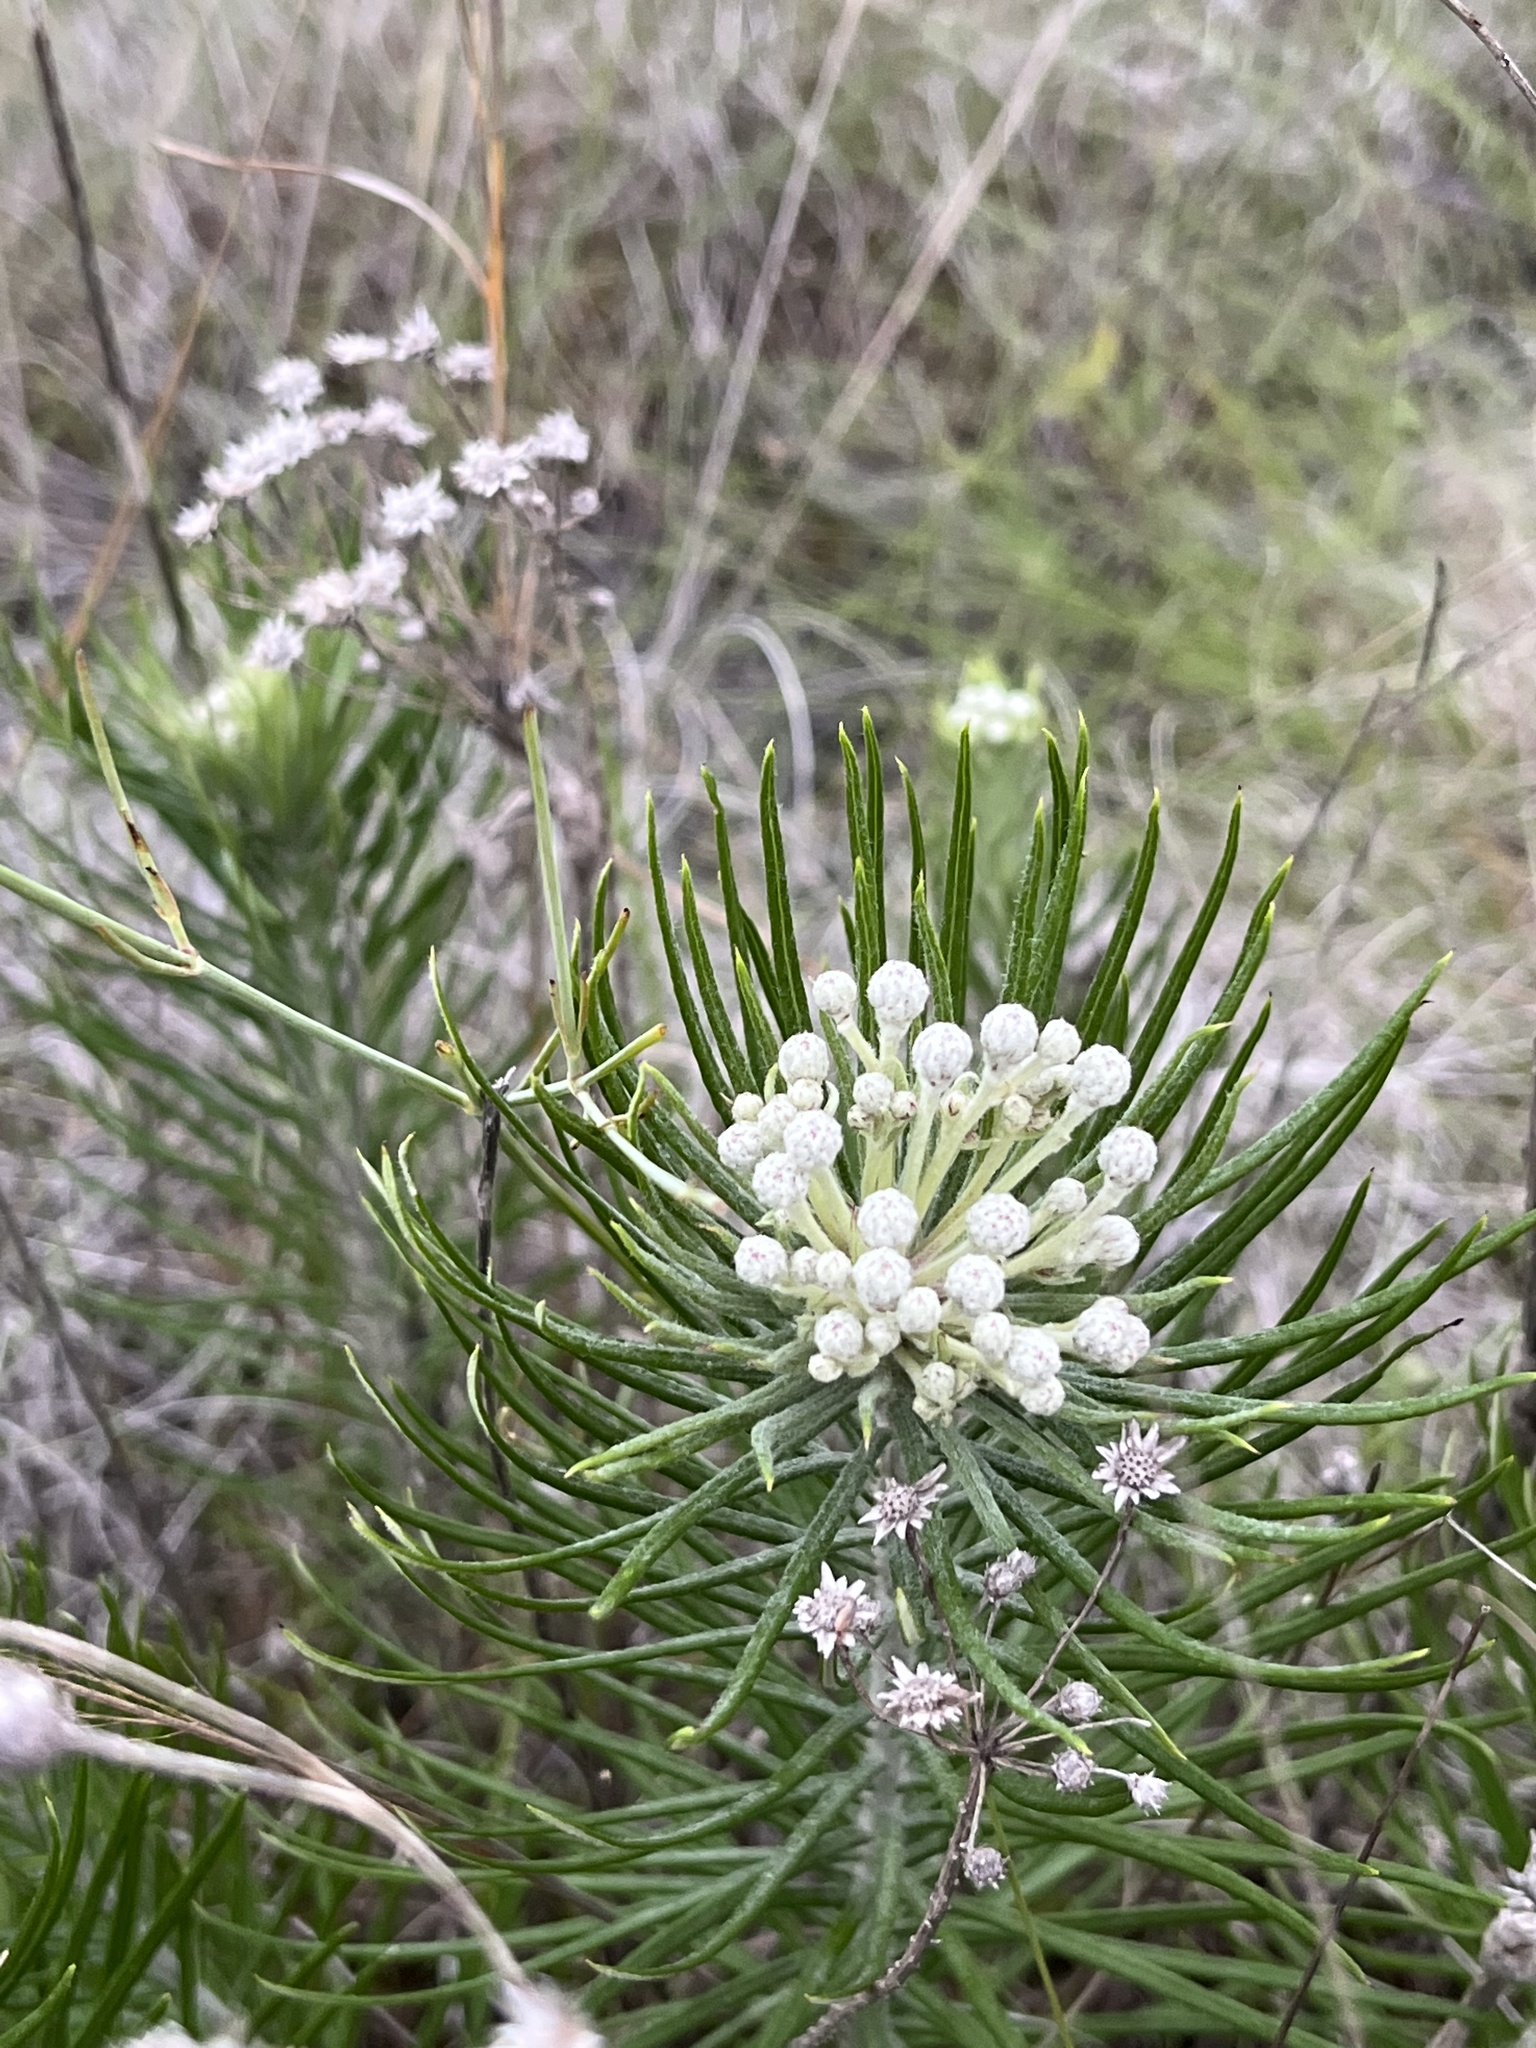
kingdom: Plantae
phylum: Tracheophyta
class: Magnoliopsida
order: Asterales
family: Asteraceae
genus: Vernonia
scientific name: Vernonia lindheimeri
